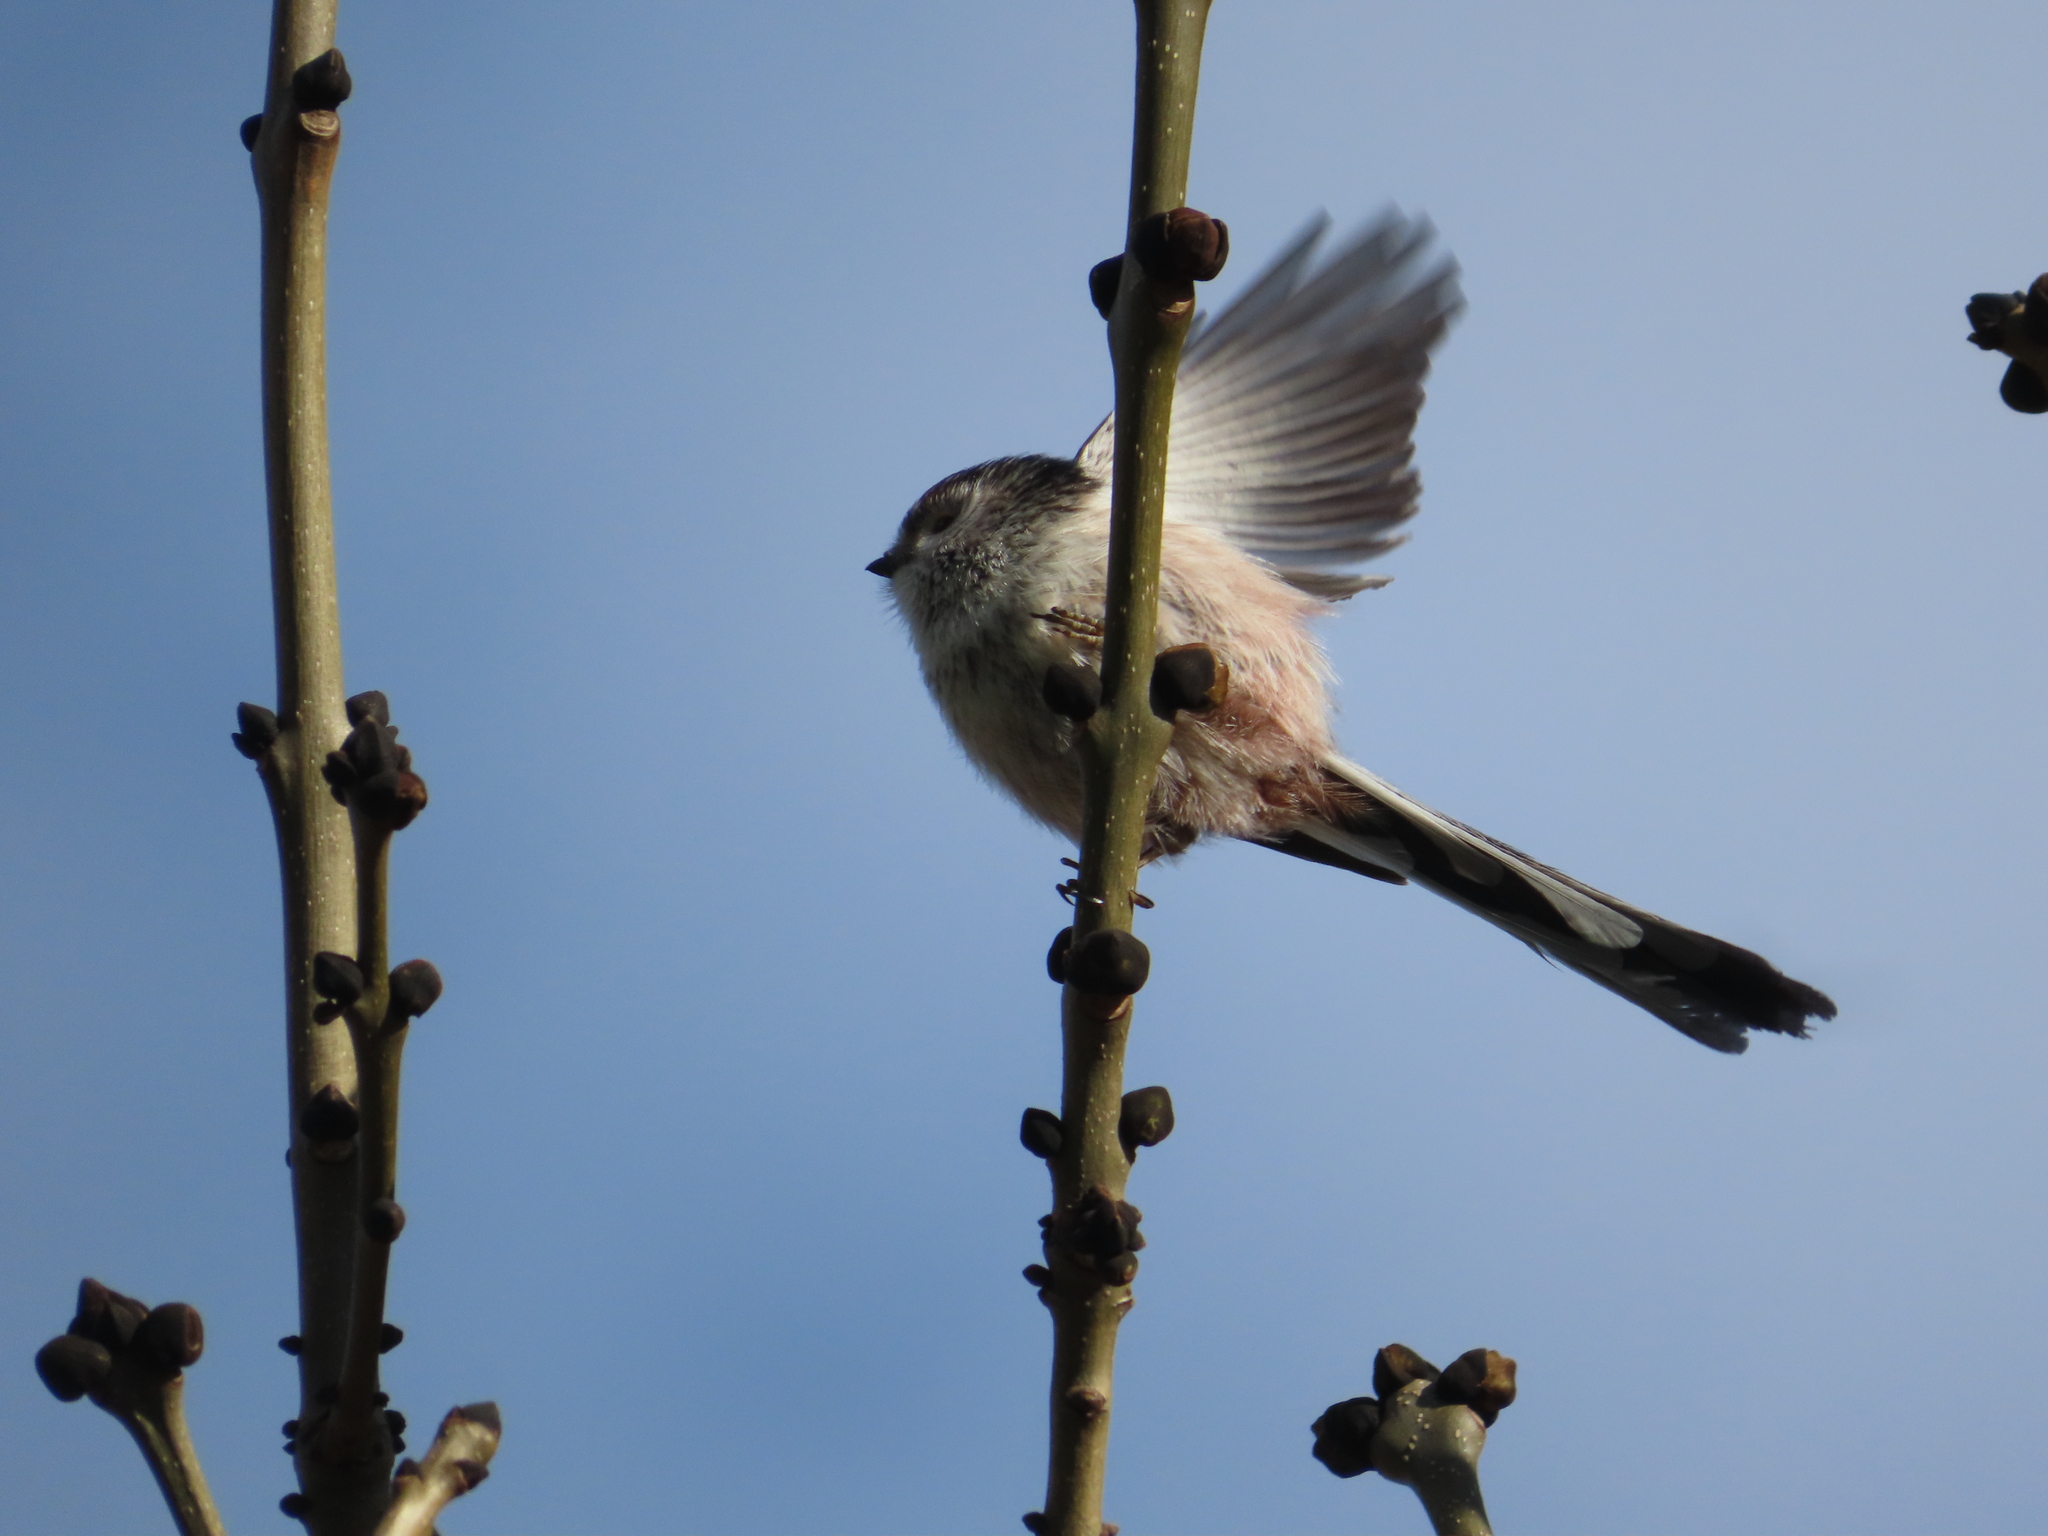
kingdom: Animalia
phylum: Chordata
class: Aves
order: Passeriformes
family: Aegithalidae
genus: Aegithalos
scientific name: Aegithalos caudatus
